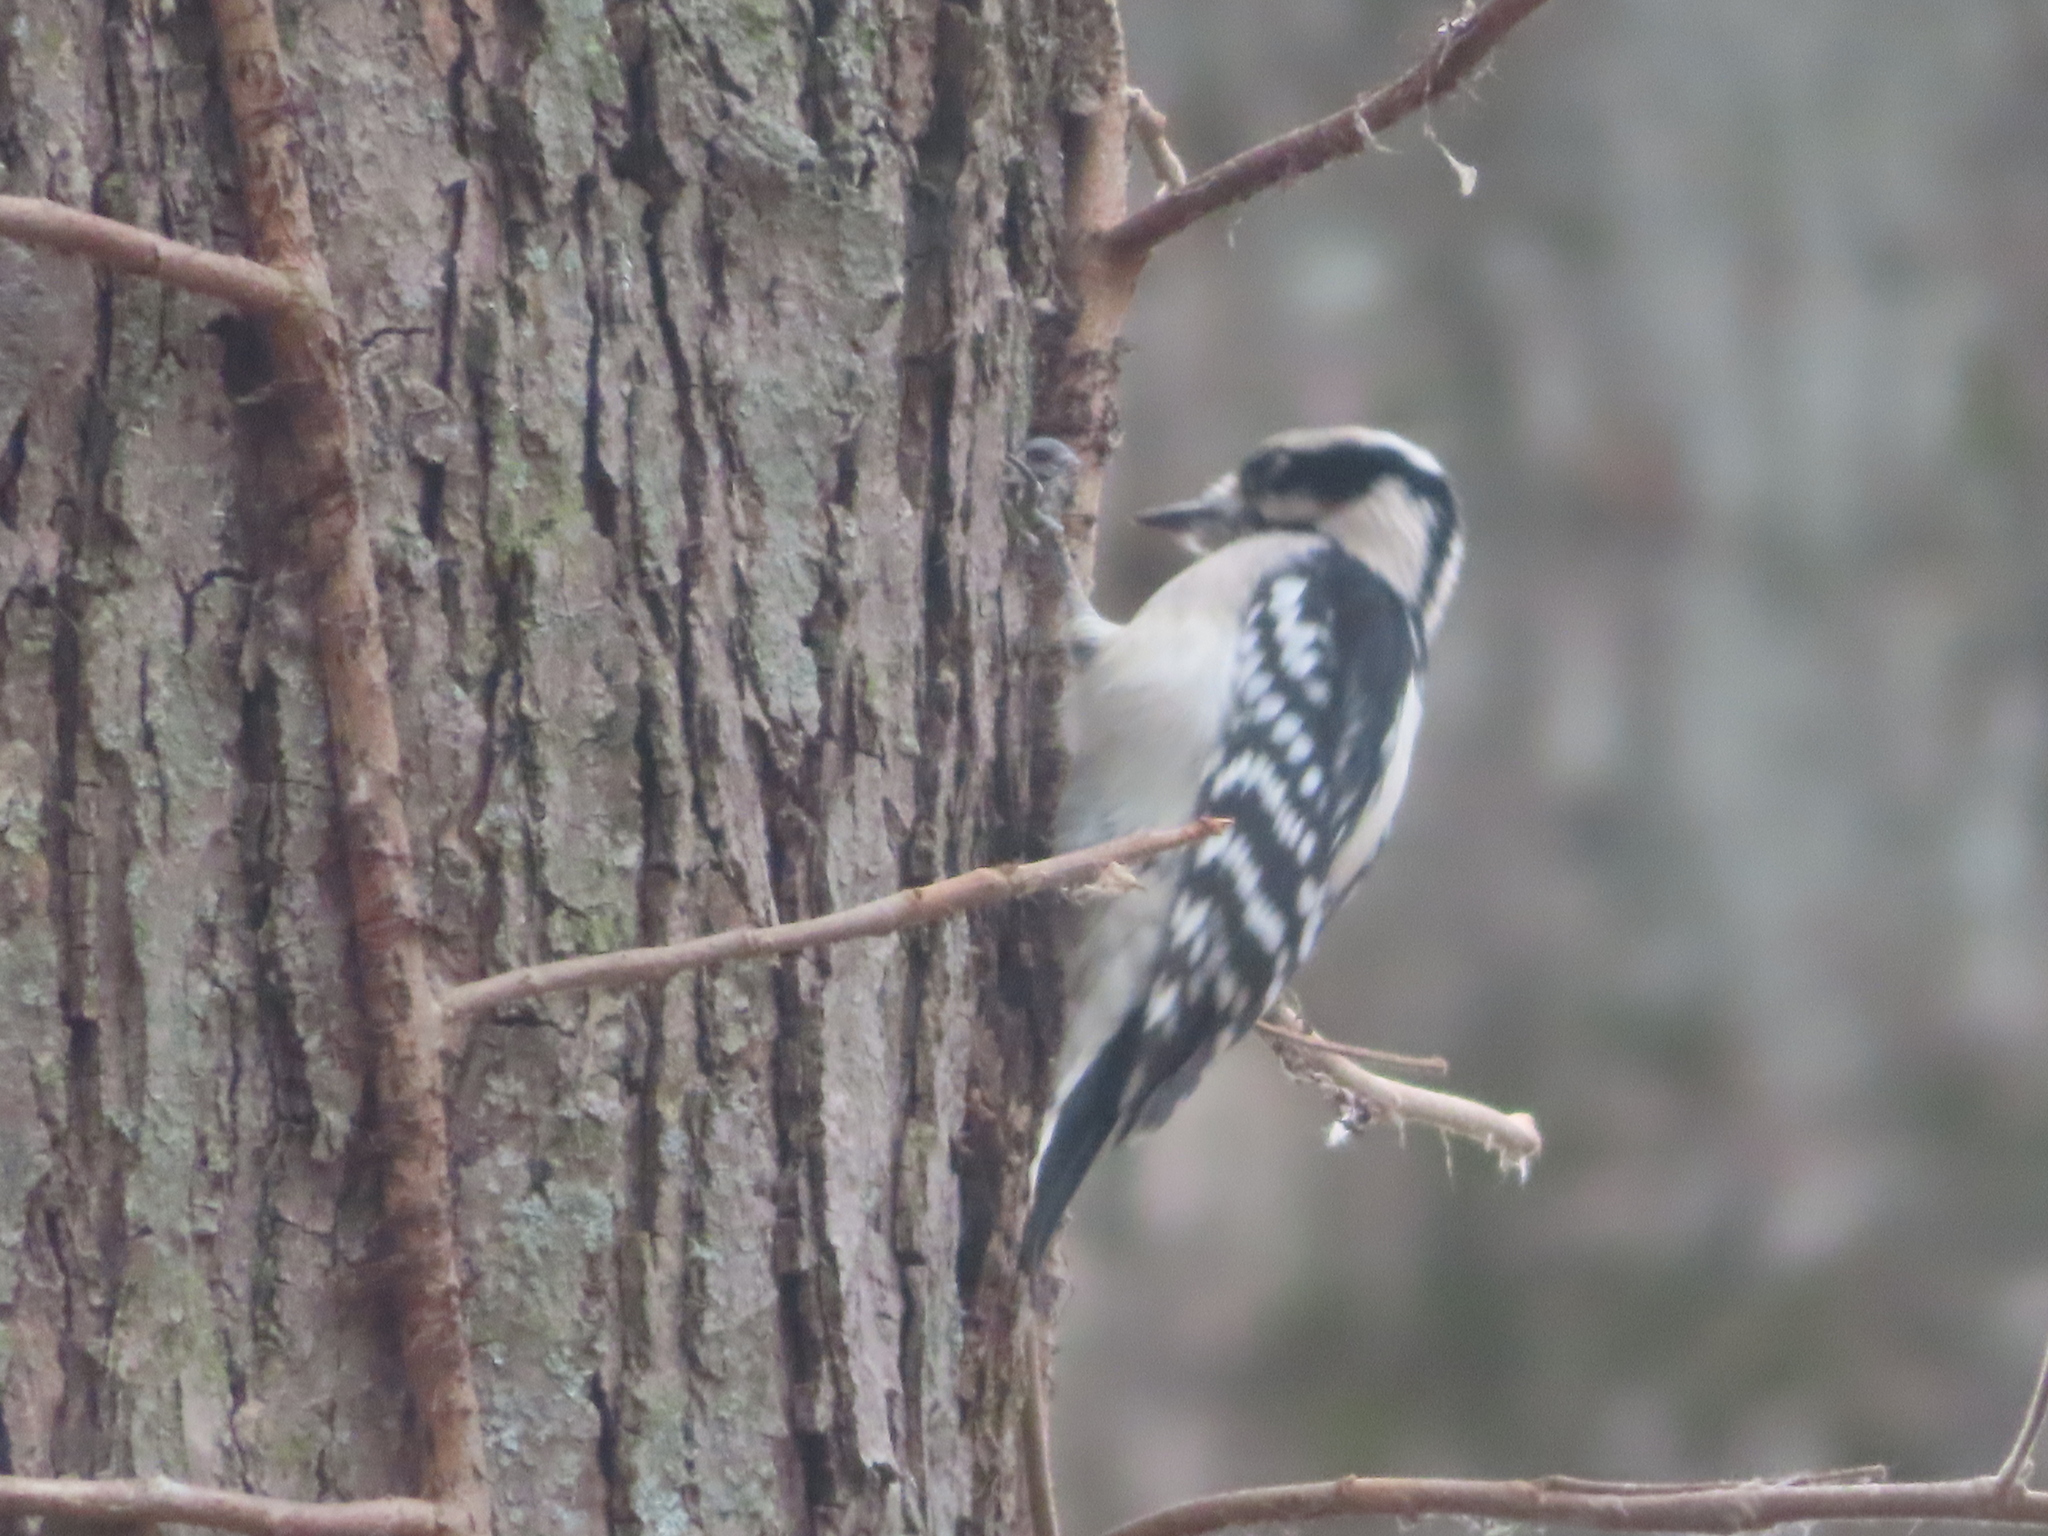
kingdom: Animalia
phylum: Chordata
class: Aves
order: Piciformes
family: Picidae
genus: Dryobates
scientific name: Dryobates pubescens
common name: Downy woodpecker
